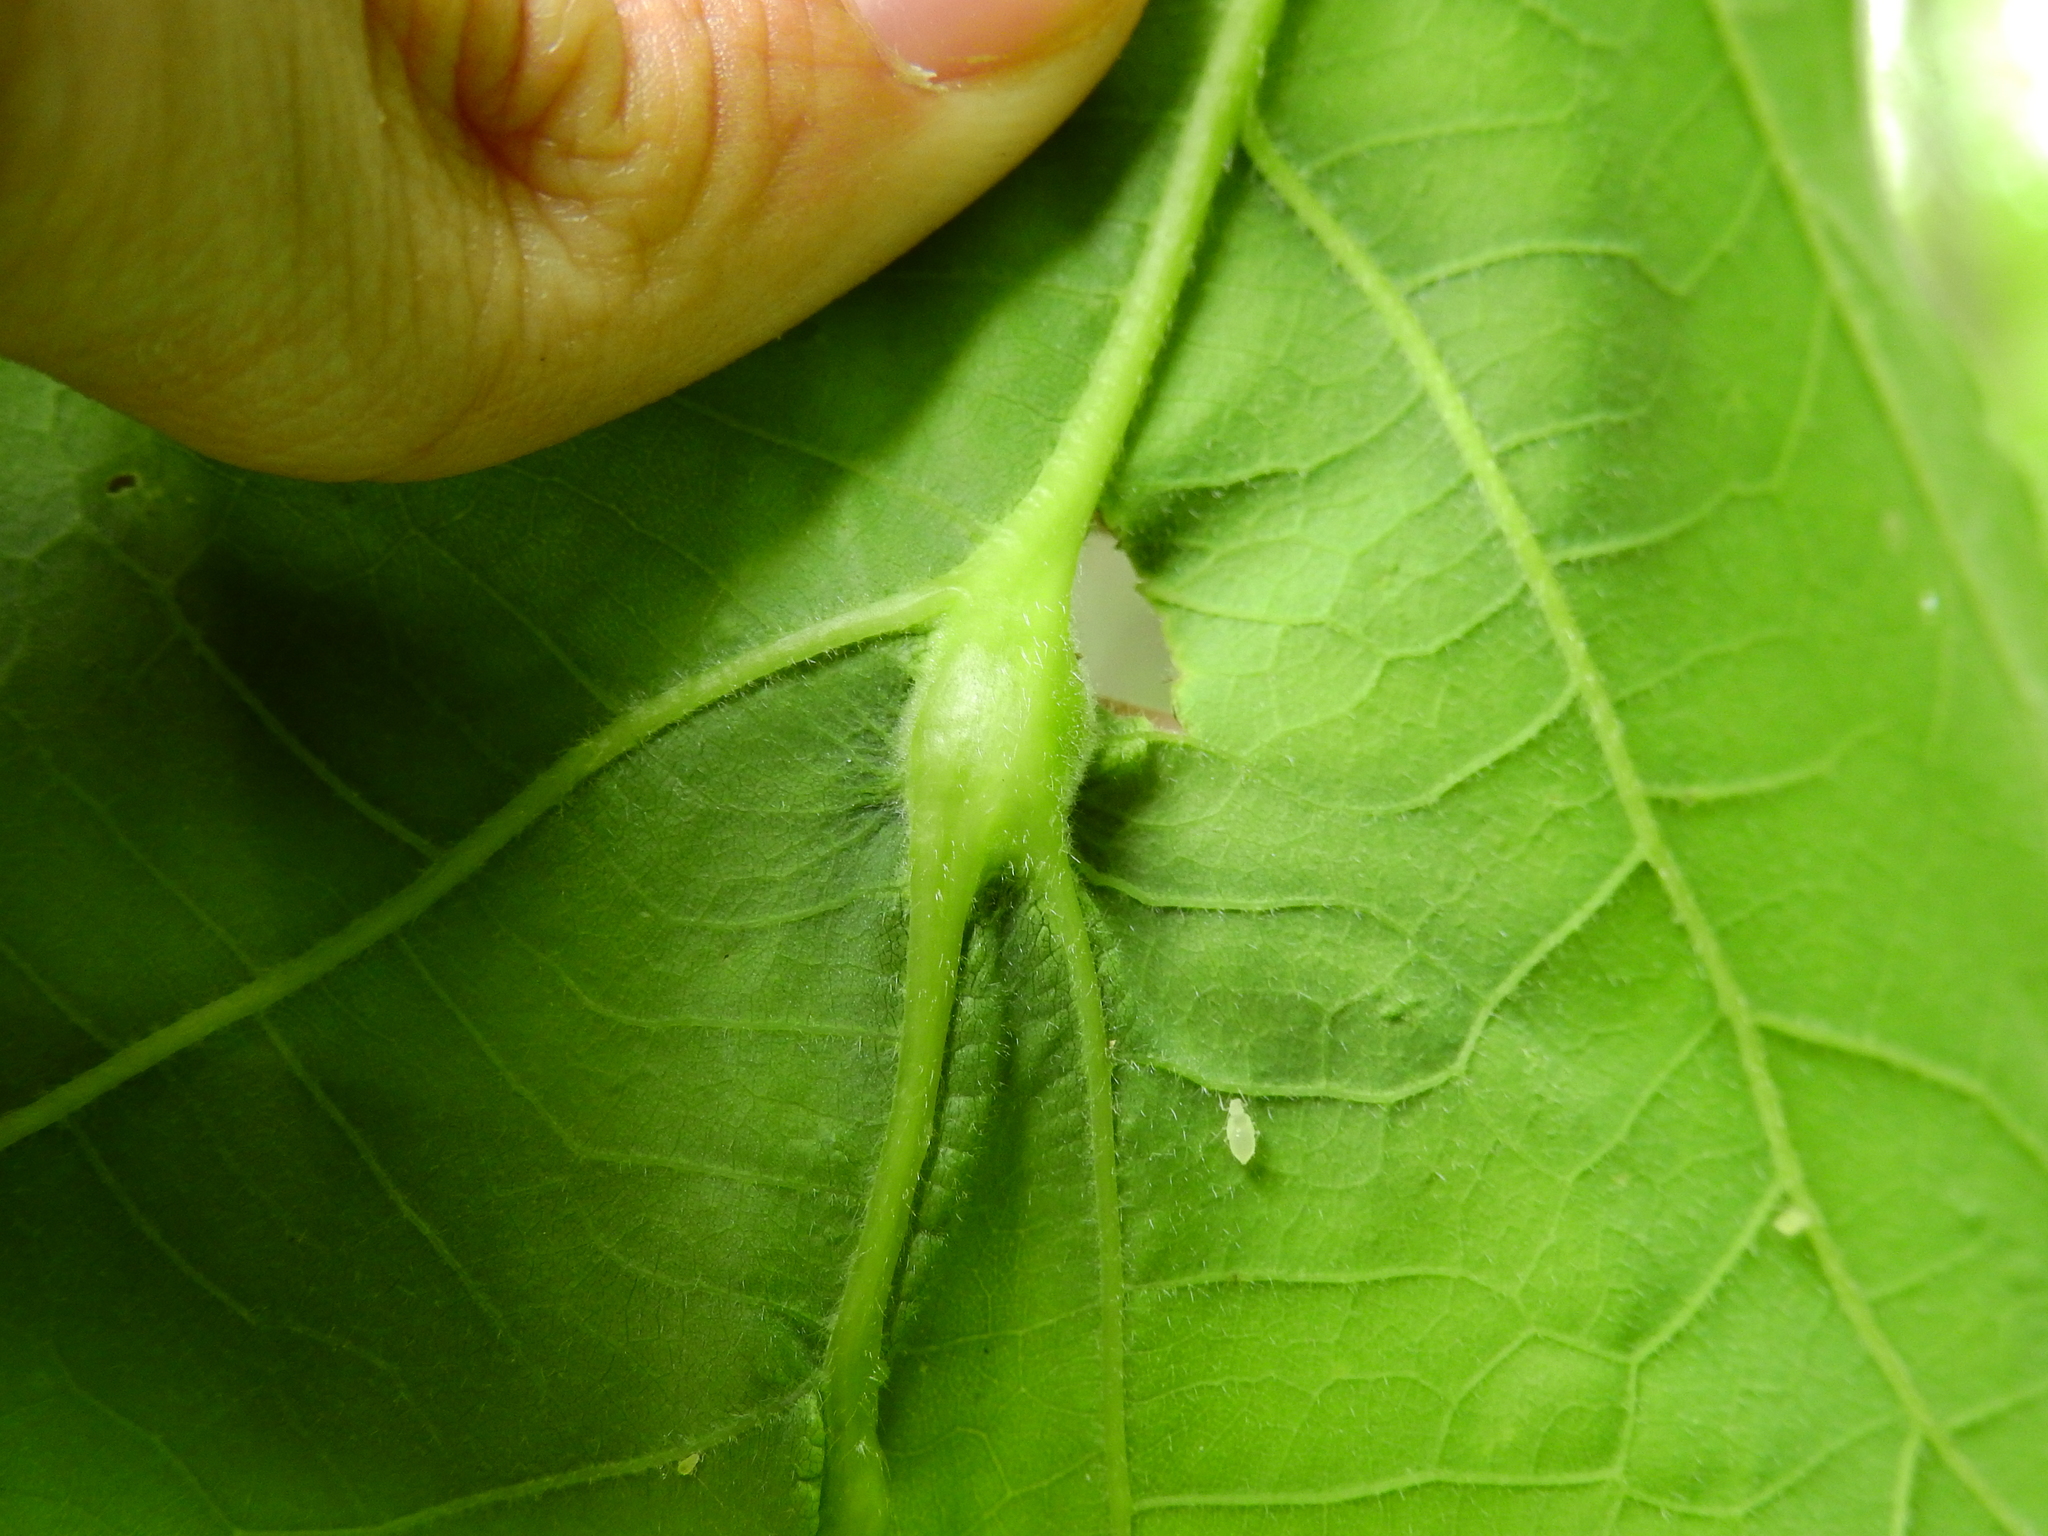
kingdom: Animalia
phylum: Arthropoda
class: Insecta
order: Hymenoptera
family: Cynipidae
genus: Bassettia
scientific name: Bassettia flavipes
